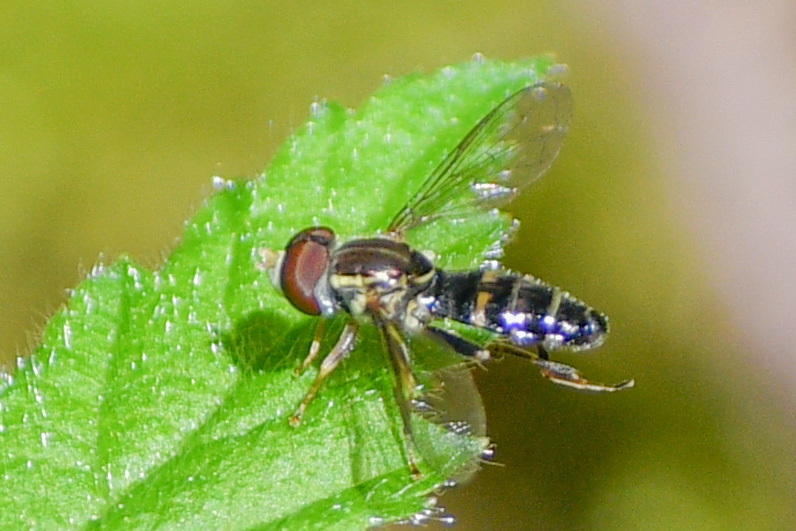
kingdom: Animalia
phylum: Arthropoda
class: Insecta
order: Diptera
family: Syrphidae
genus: Toxomerus
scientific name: Toxomerus occidentalis
